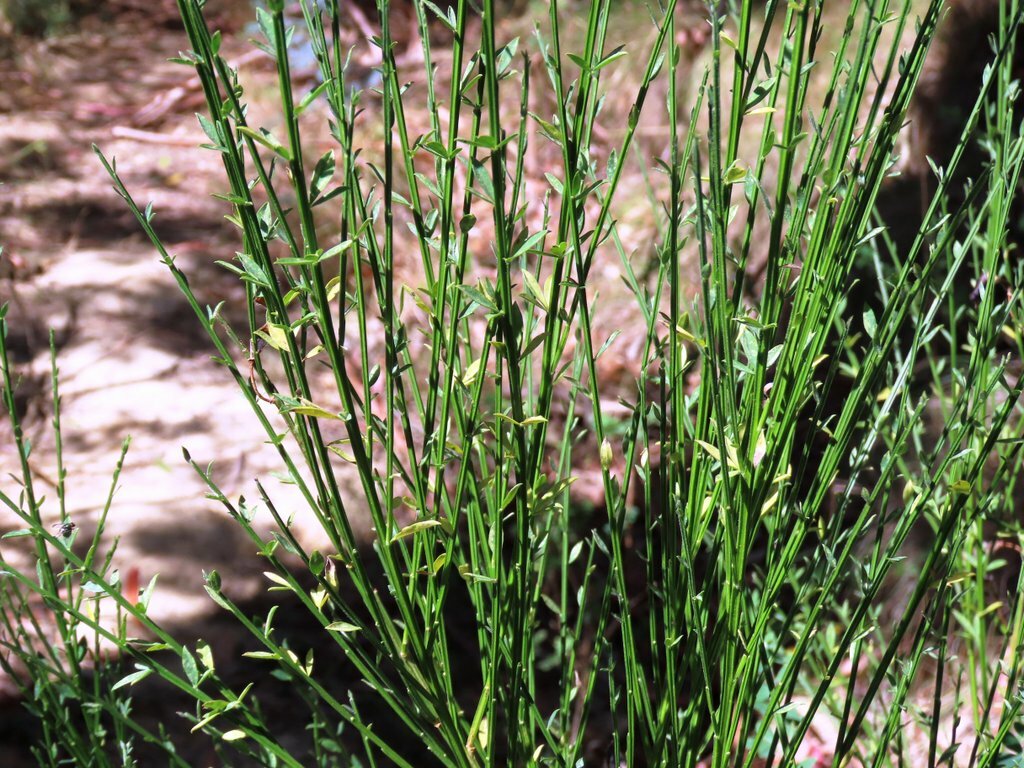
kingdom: Plantae
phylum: Tracheophyta
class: Magnoliopsida
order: Fabales
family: Fabaceae
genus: Cytisus
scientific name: Cytisus scoparius
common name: Scotch broom
